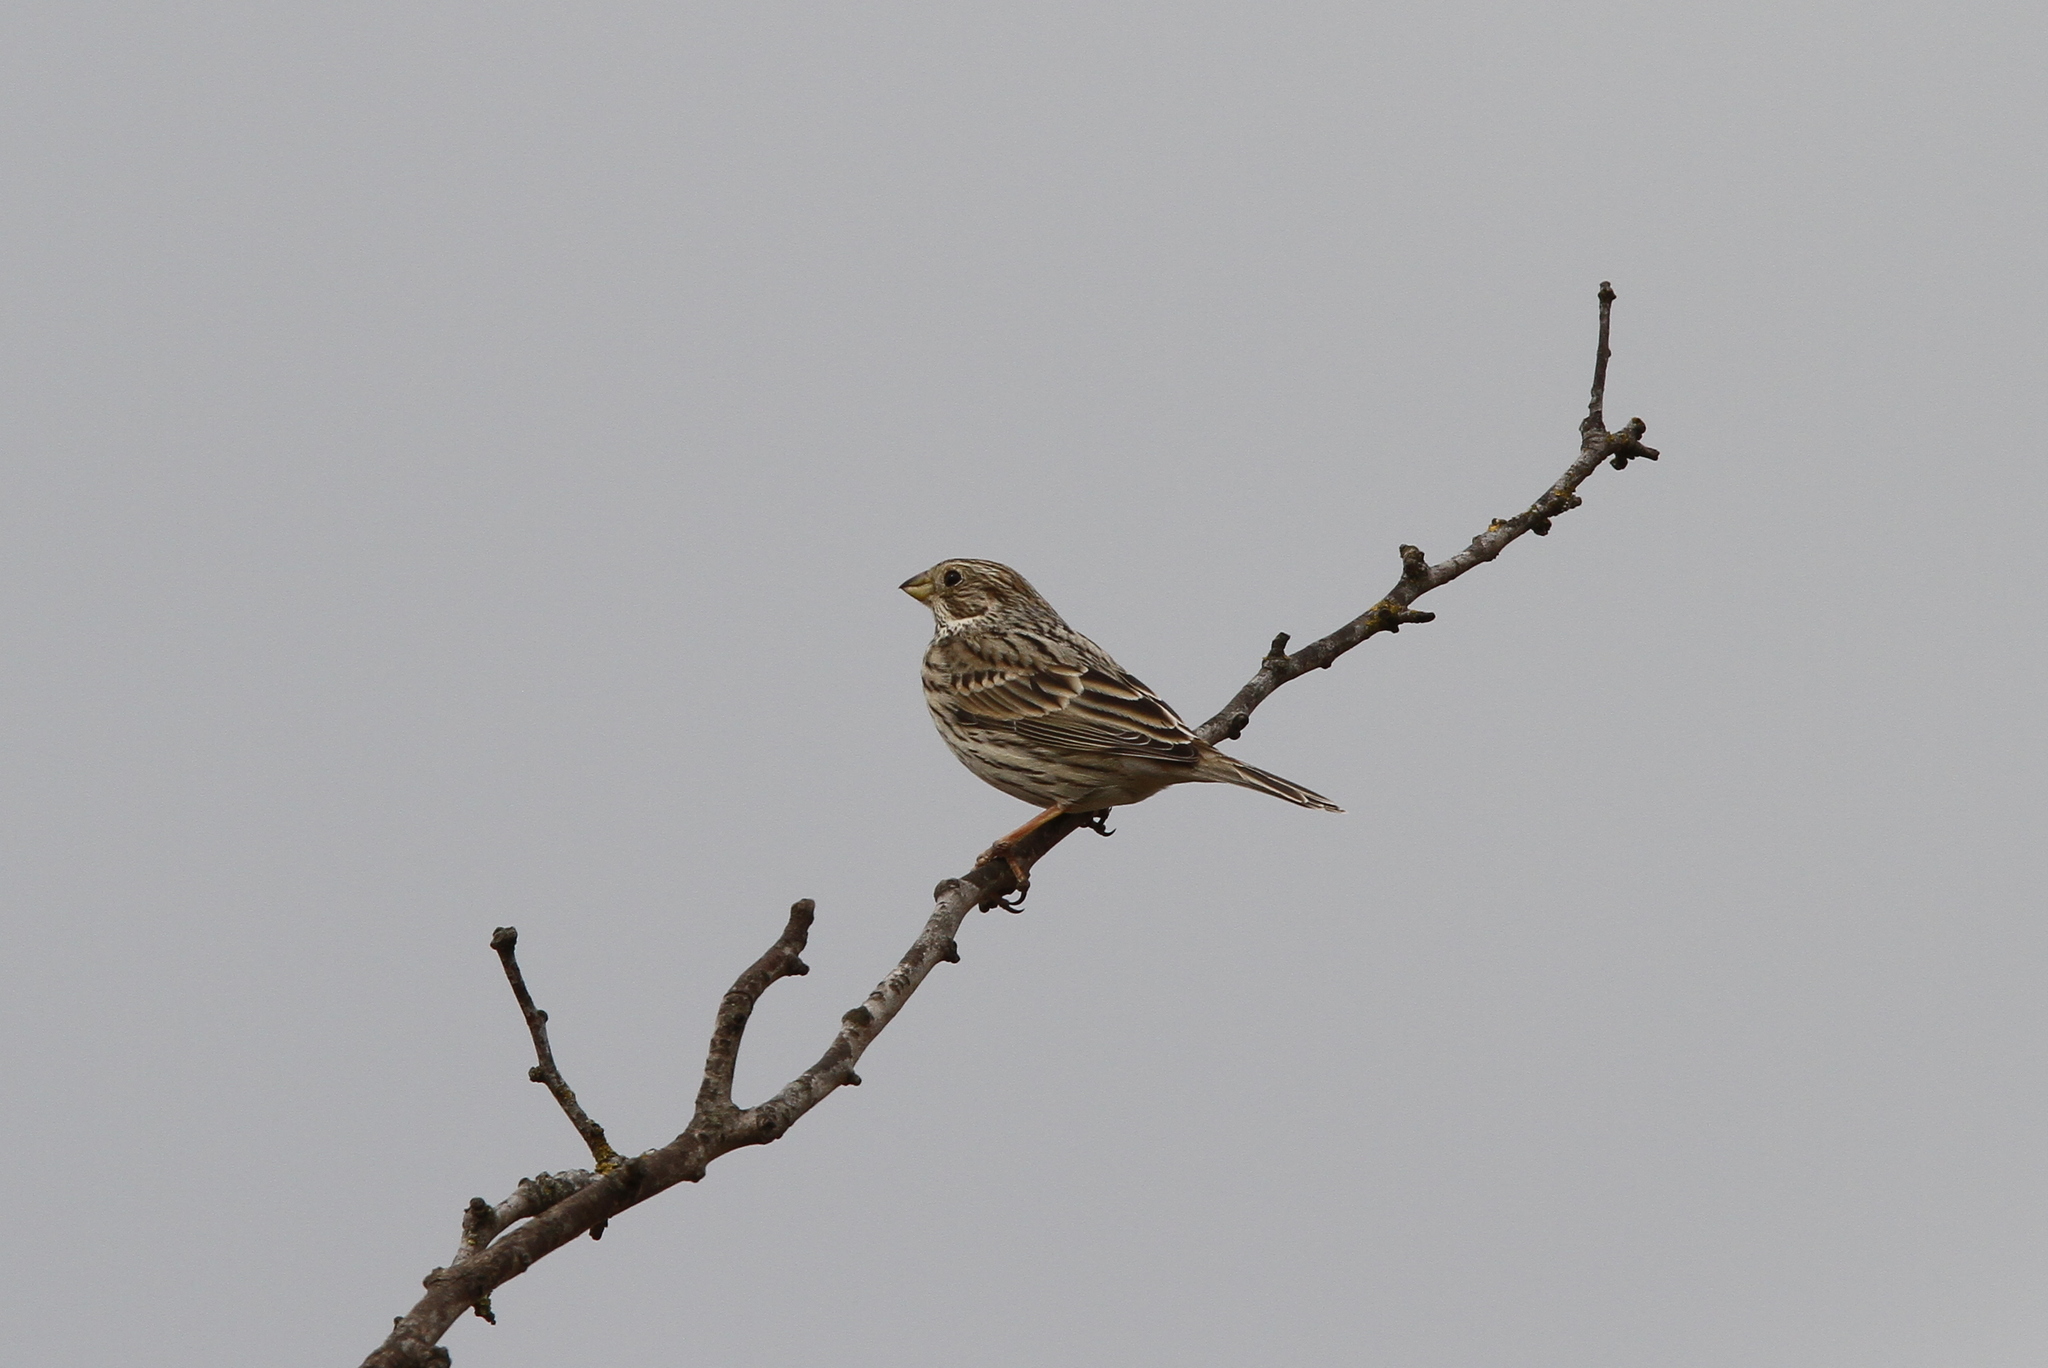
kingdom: Animalia
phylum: Chordata
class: Aves
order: Passeriformes
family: Emberizidae
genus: Emberiza
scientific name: Emberiza calandra
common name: Corn bunting
